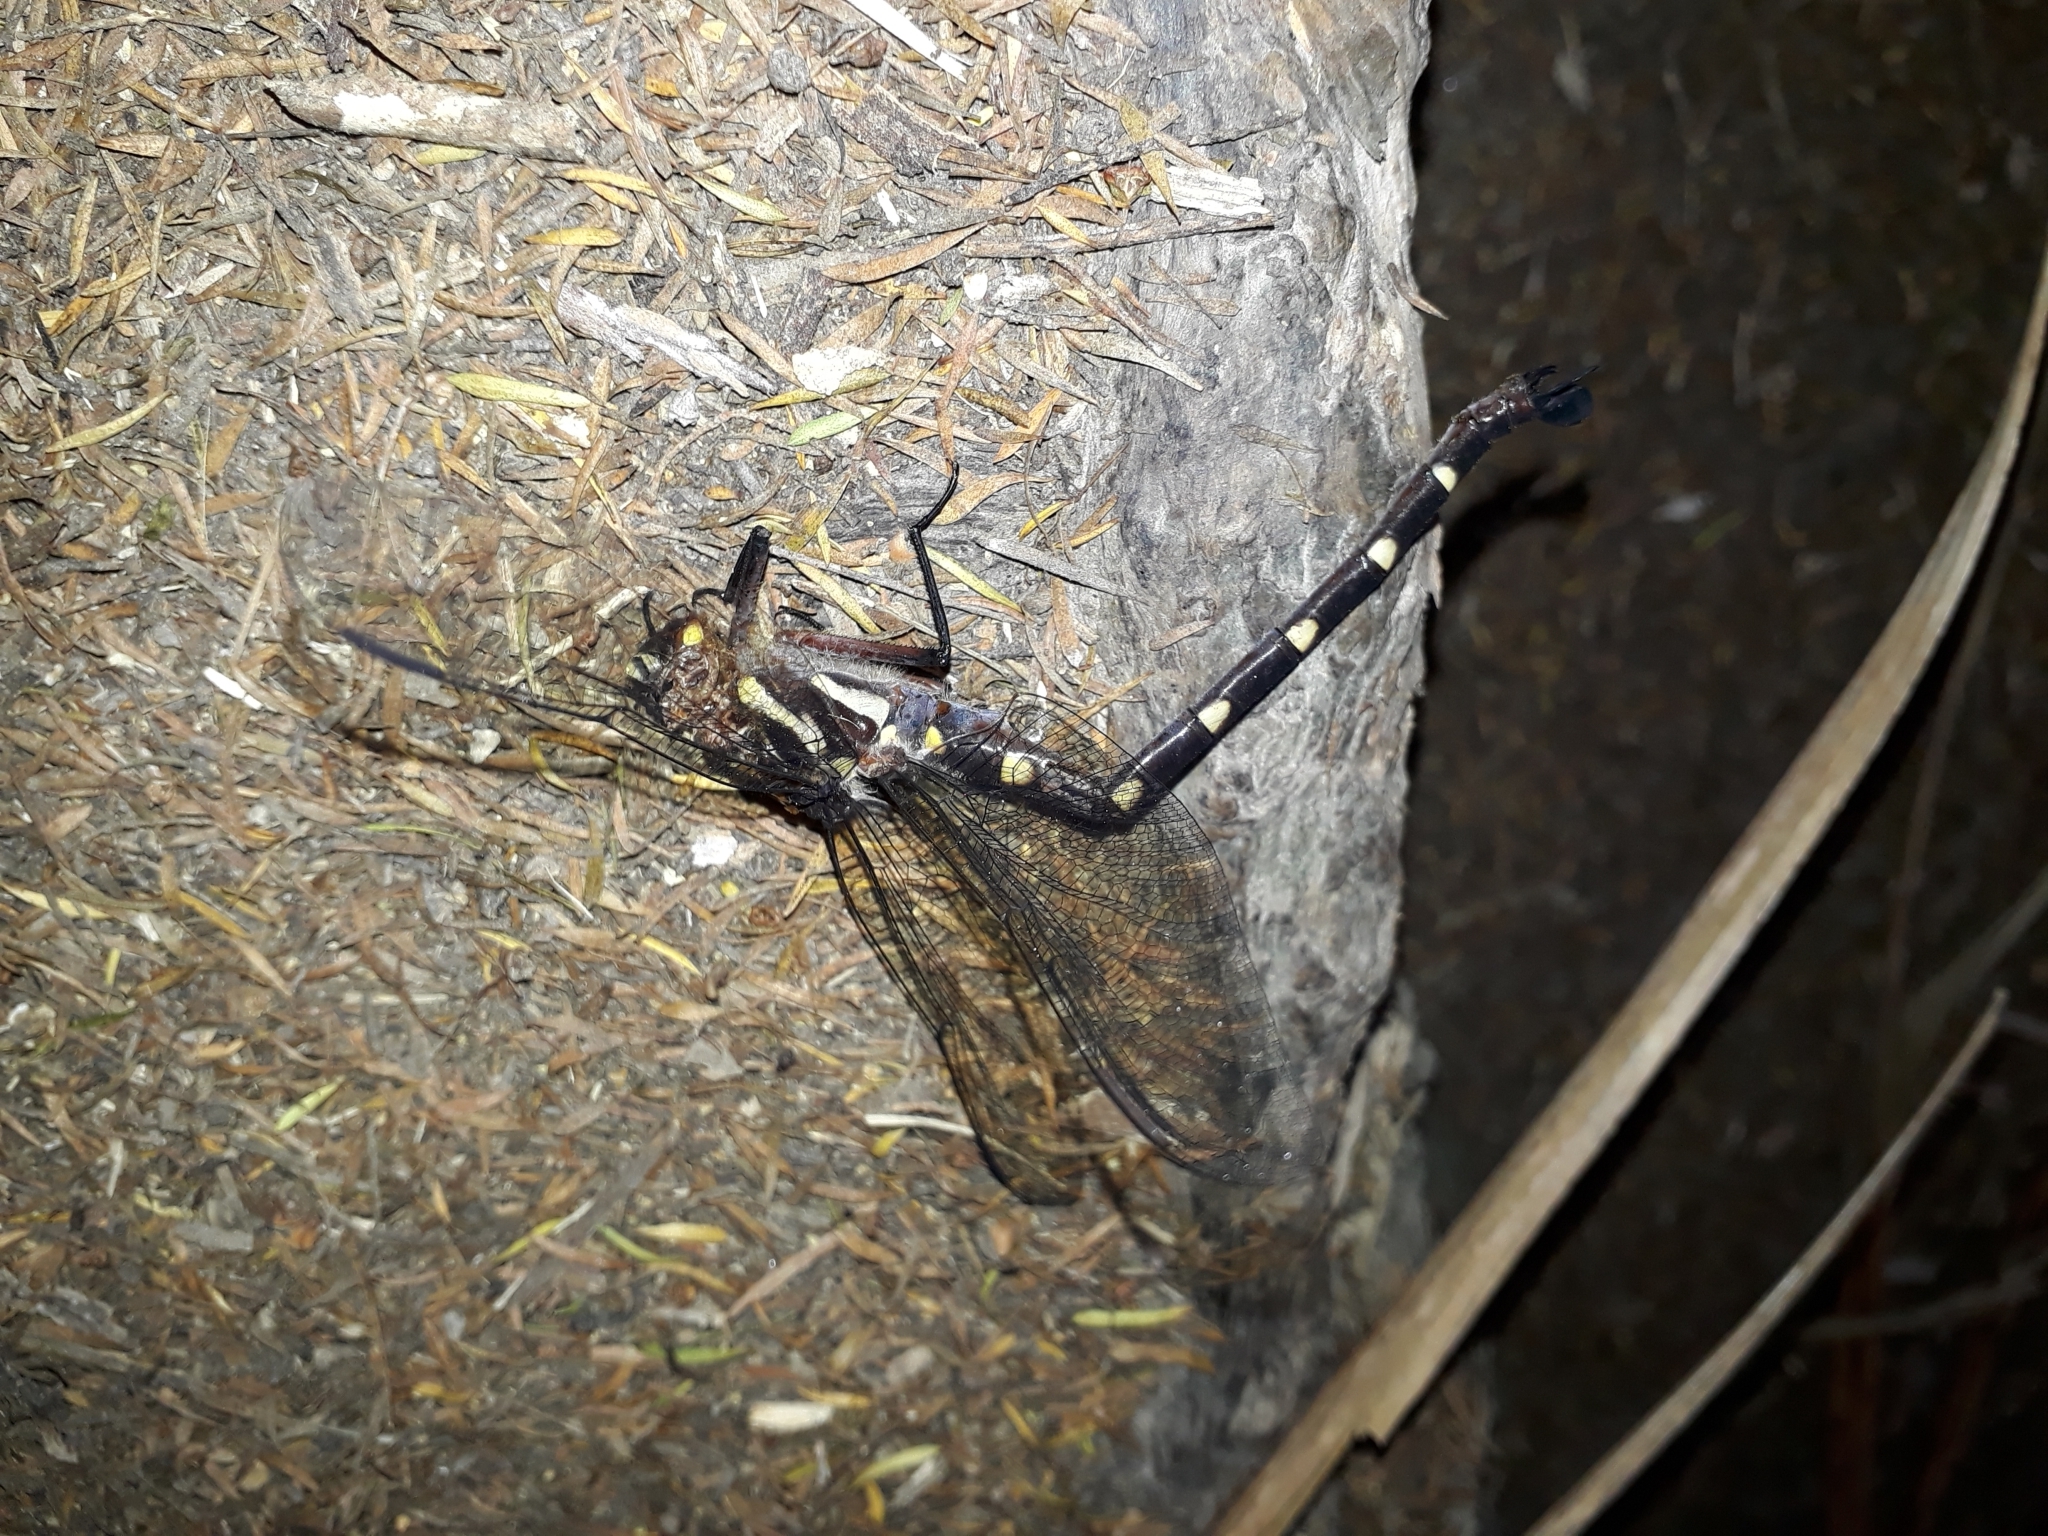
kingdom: Animalia
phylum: Arthropoda
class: Insecta
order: Odonata
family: Petaluridae
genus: Uropetala
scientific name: Uropetala carovei
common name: Bush giant dragonfly
